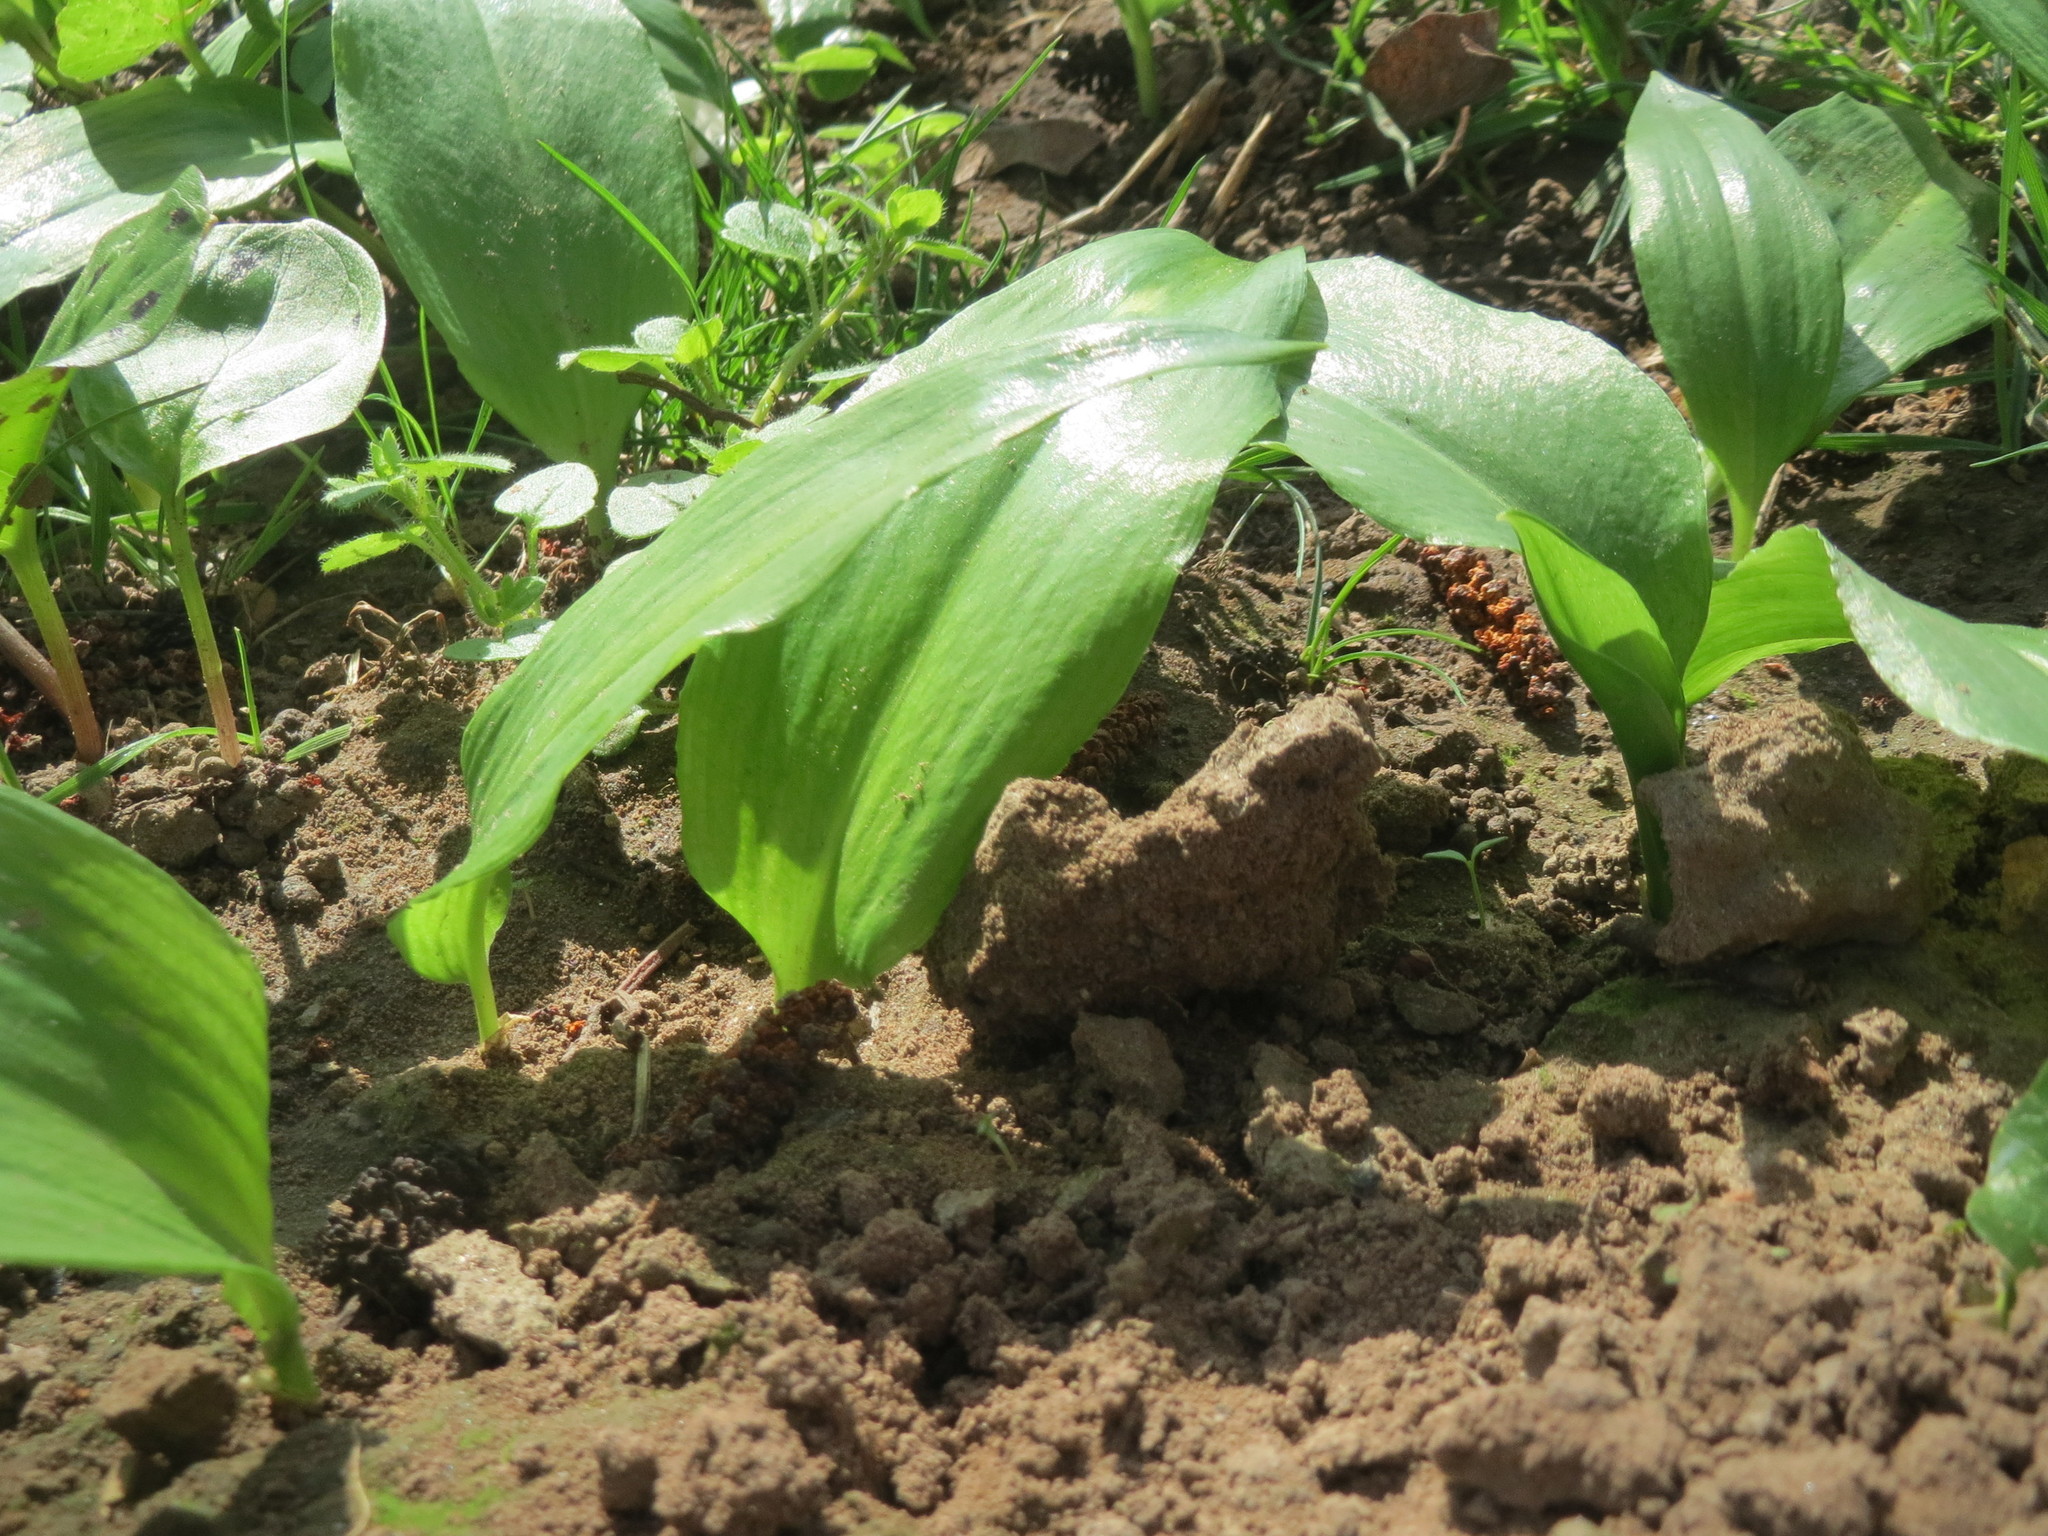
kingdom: Plantae
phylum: Tracheophyta
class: Liliopsida
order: Asparagales
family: Amaryllidaceae
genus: Allium
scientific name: Allium ursinum
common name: Ramsons
